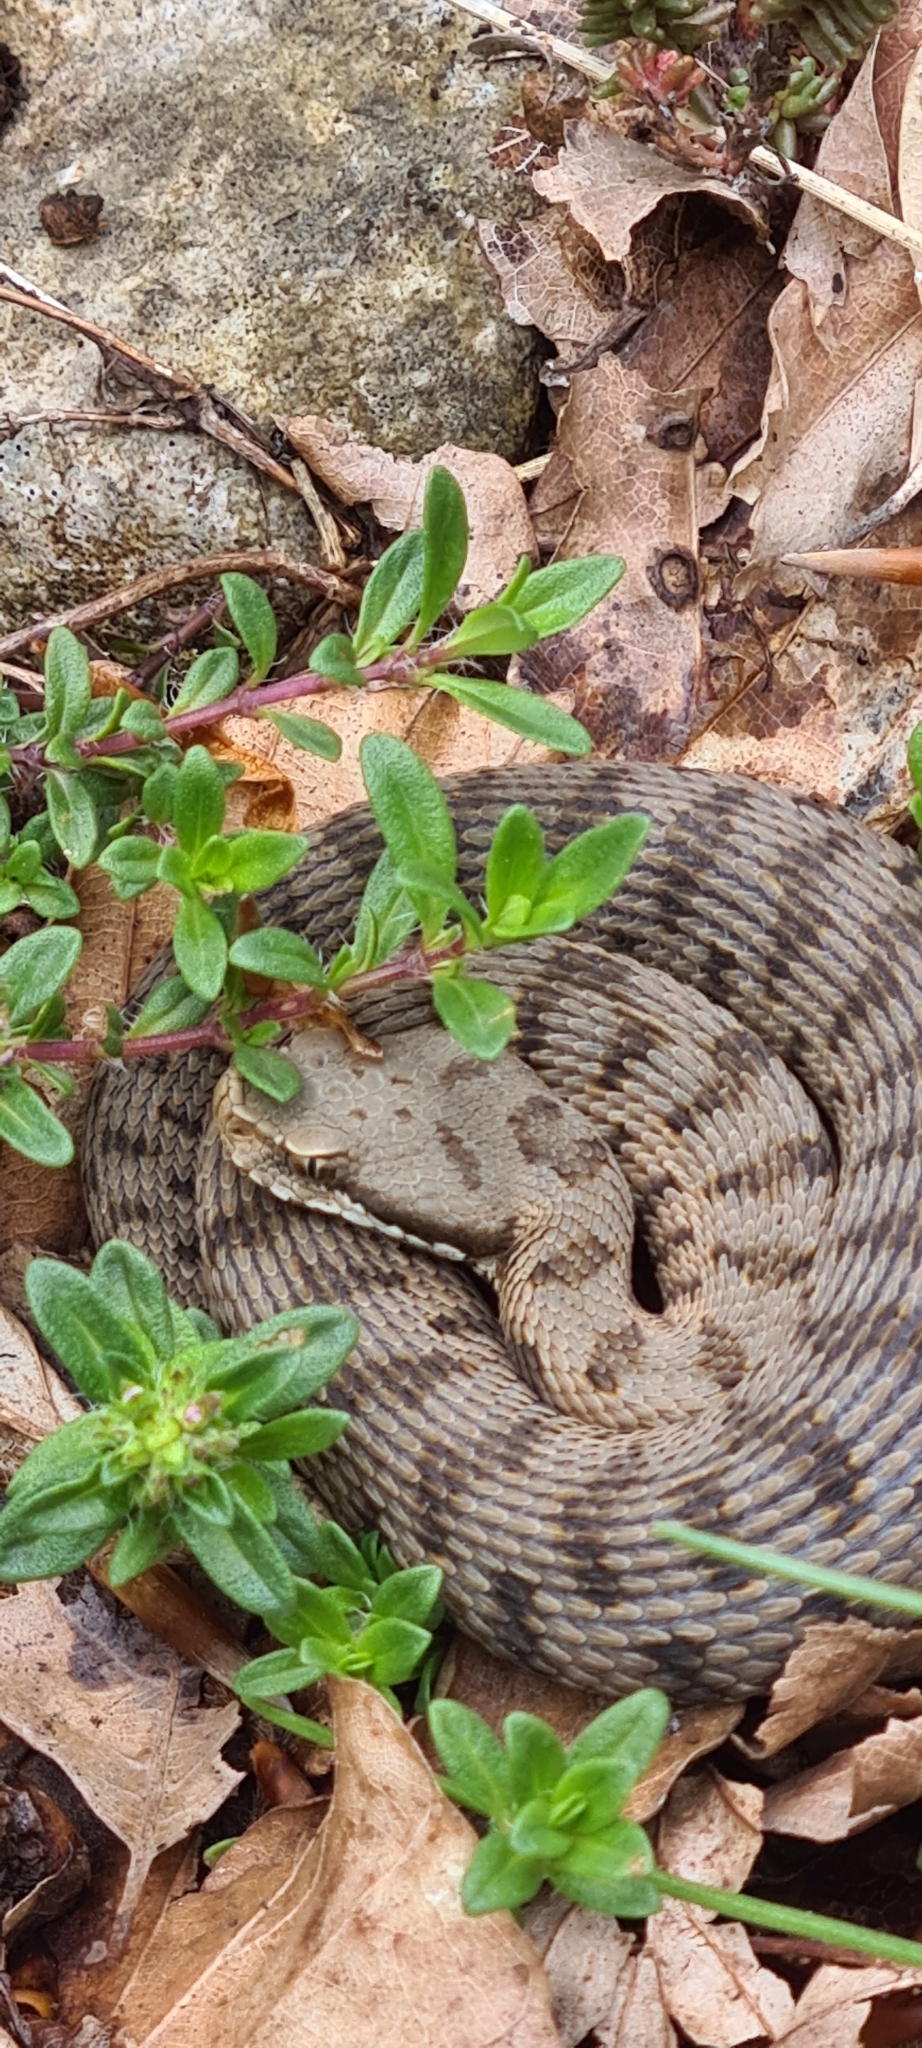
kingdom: Animalia
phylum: Chordata
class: Squamata
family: Viperidae
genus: Vipera
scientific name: Vipera aspis
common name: Asp viper
